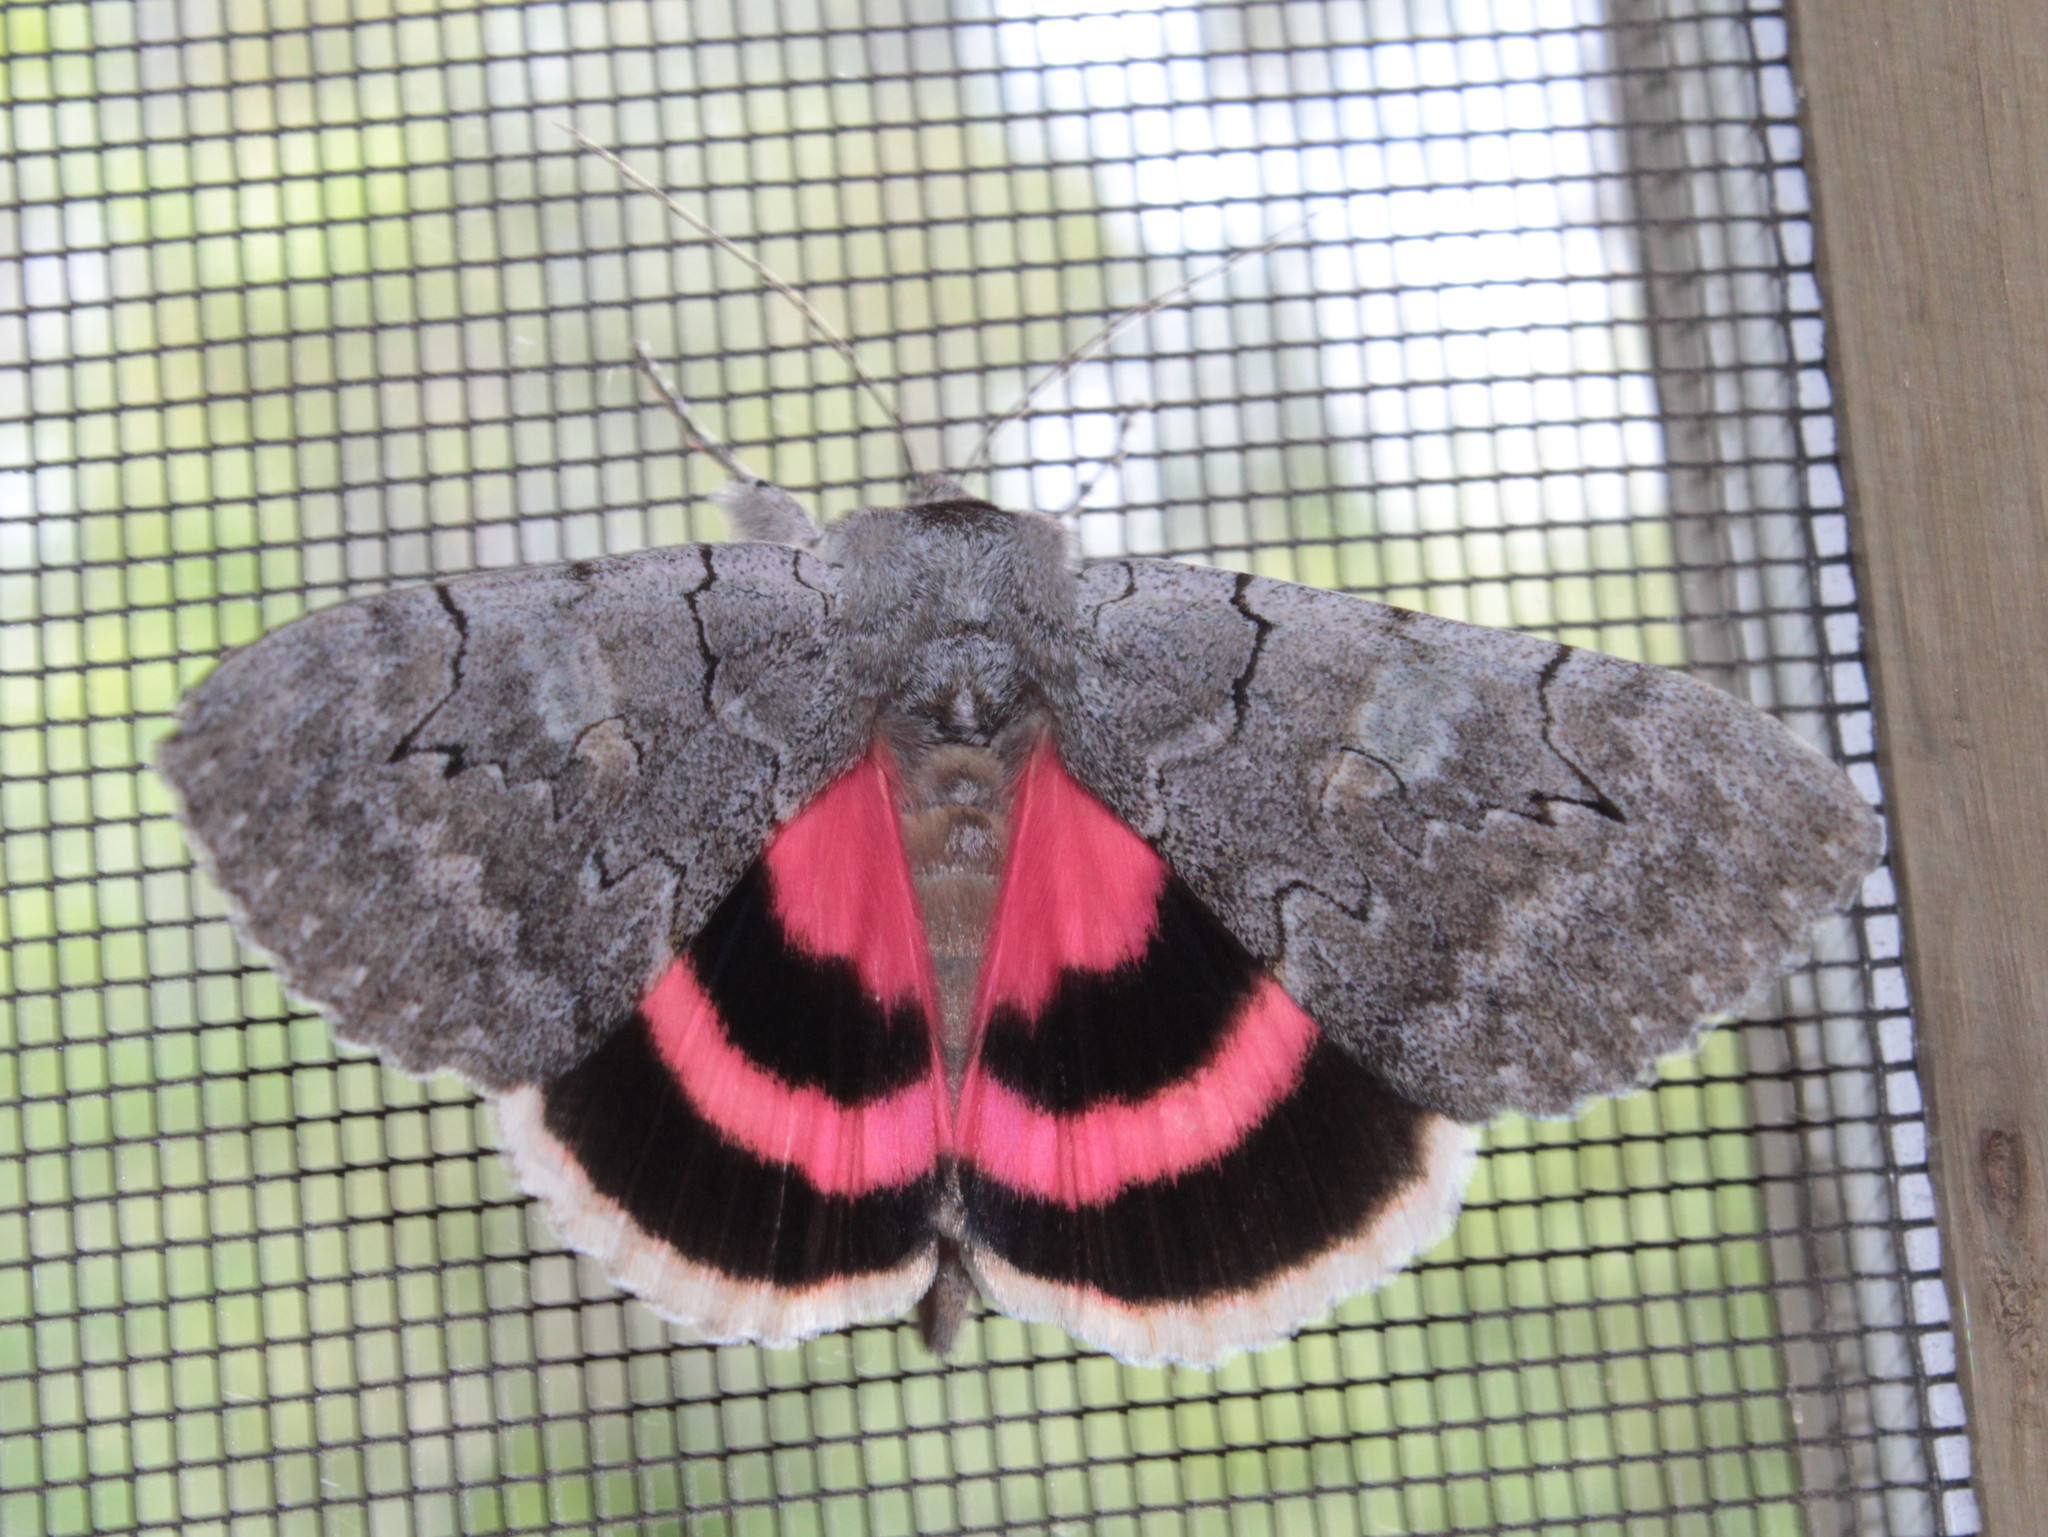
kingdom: Animalia
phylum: Arthropoda
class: Insecta
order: Lepidoptera
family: Erebidae
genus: Catocala
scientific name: Catocala concumbens
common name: Pink underwing
